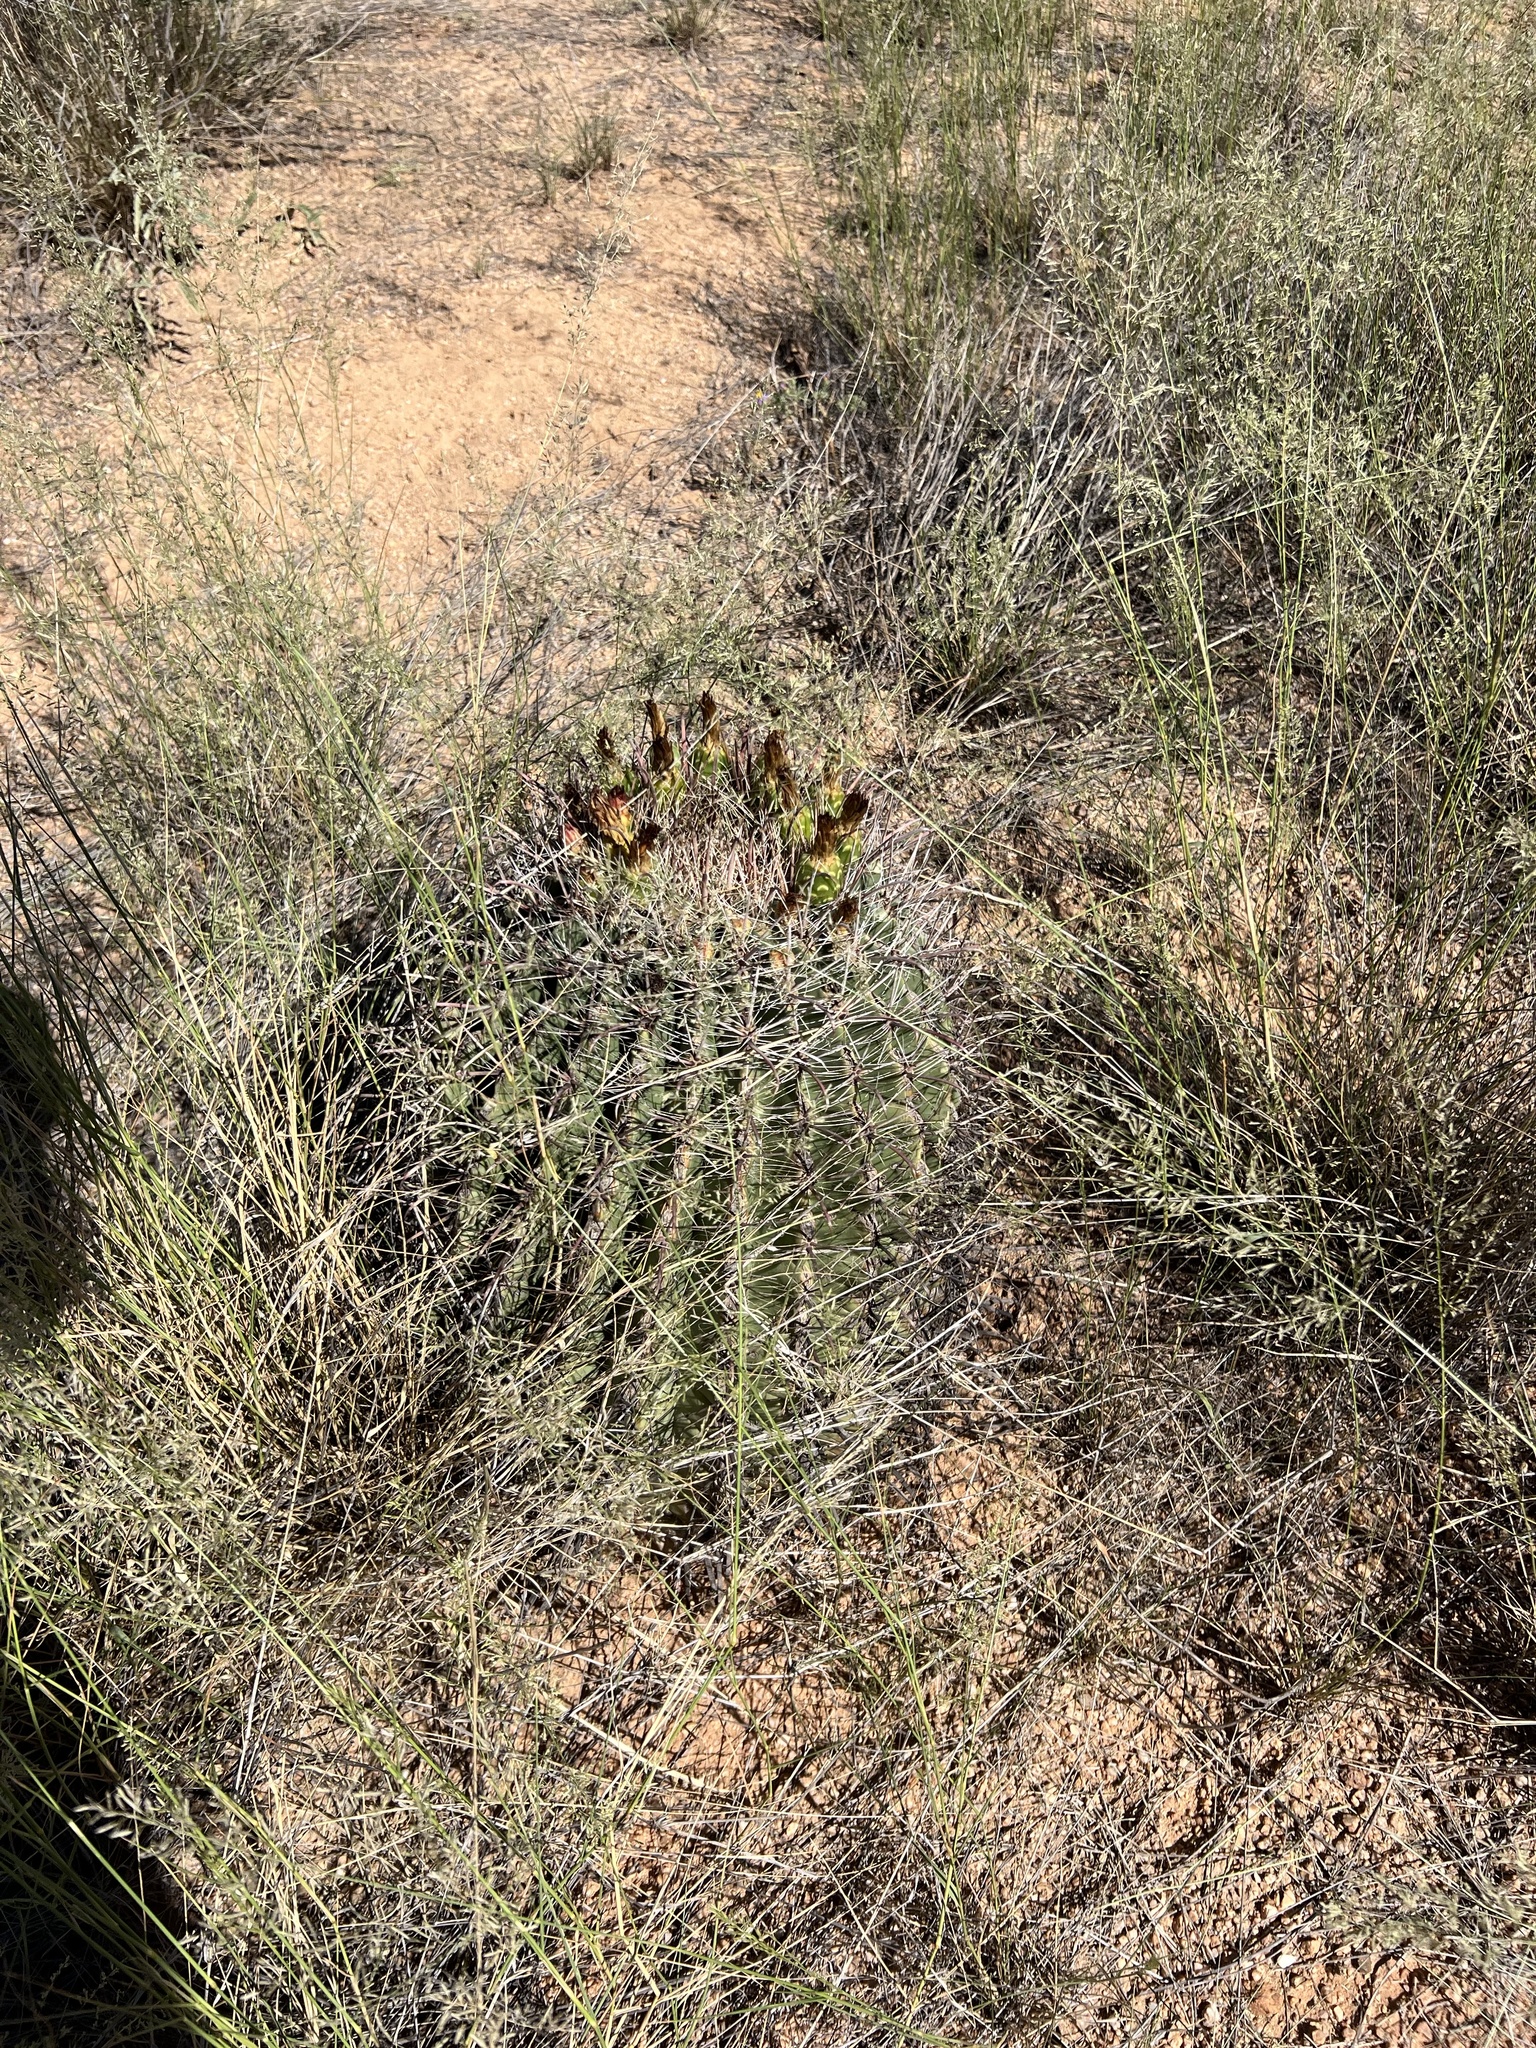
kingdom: Plantae
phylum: Tracheophyta
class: Magnoliopsida
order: Caryophyllales
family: Cactaceae
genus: Ferocactus
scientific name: Ferocactus wislizeni
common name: Candy barrel cactus
